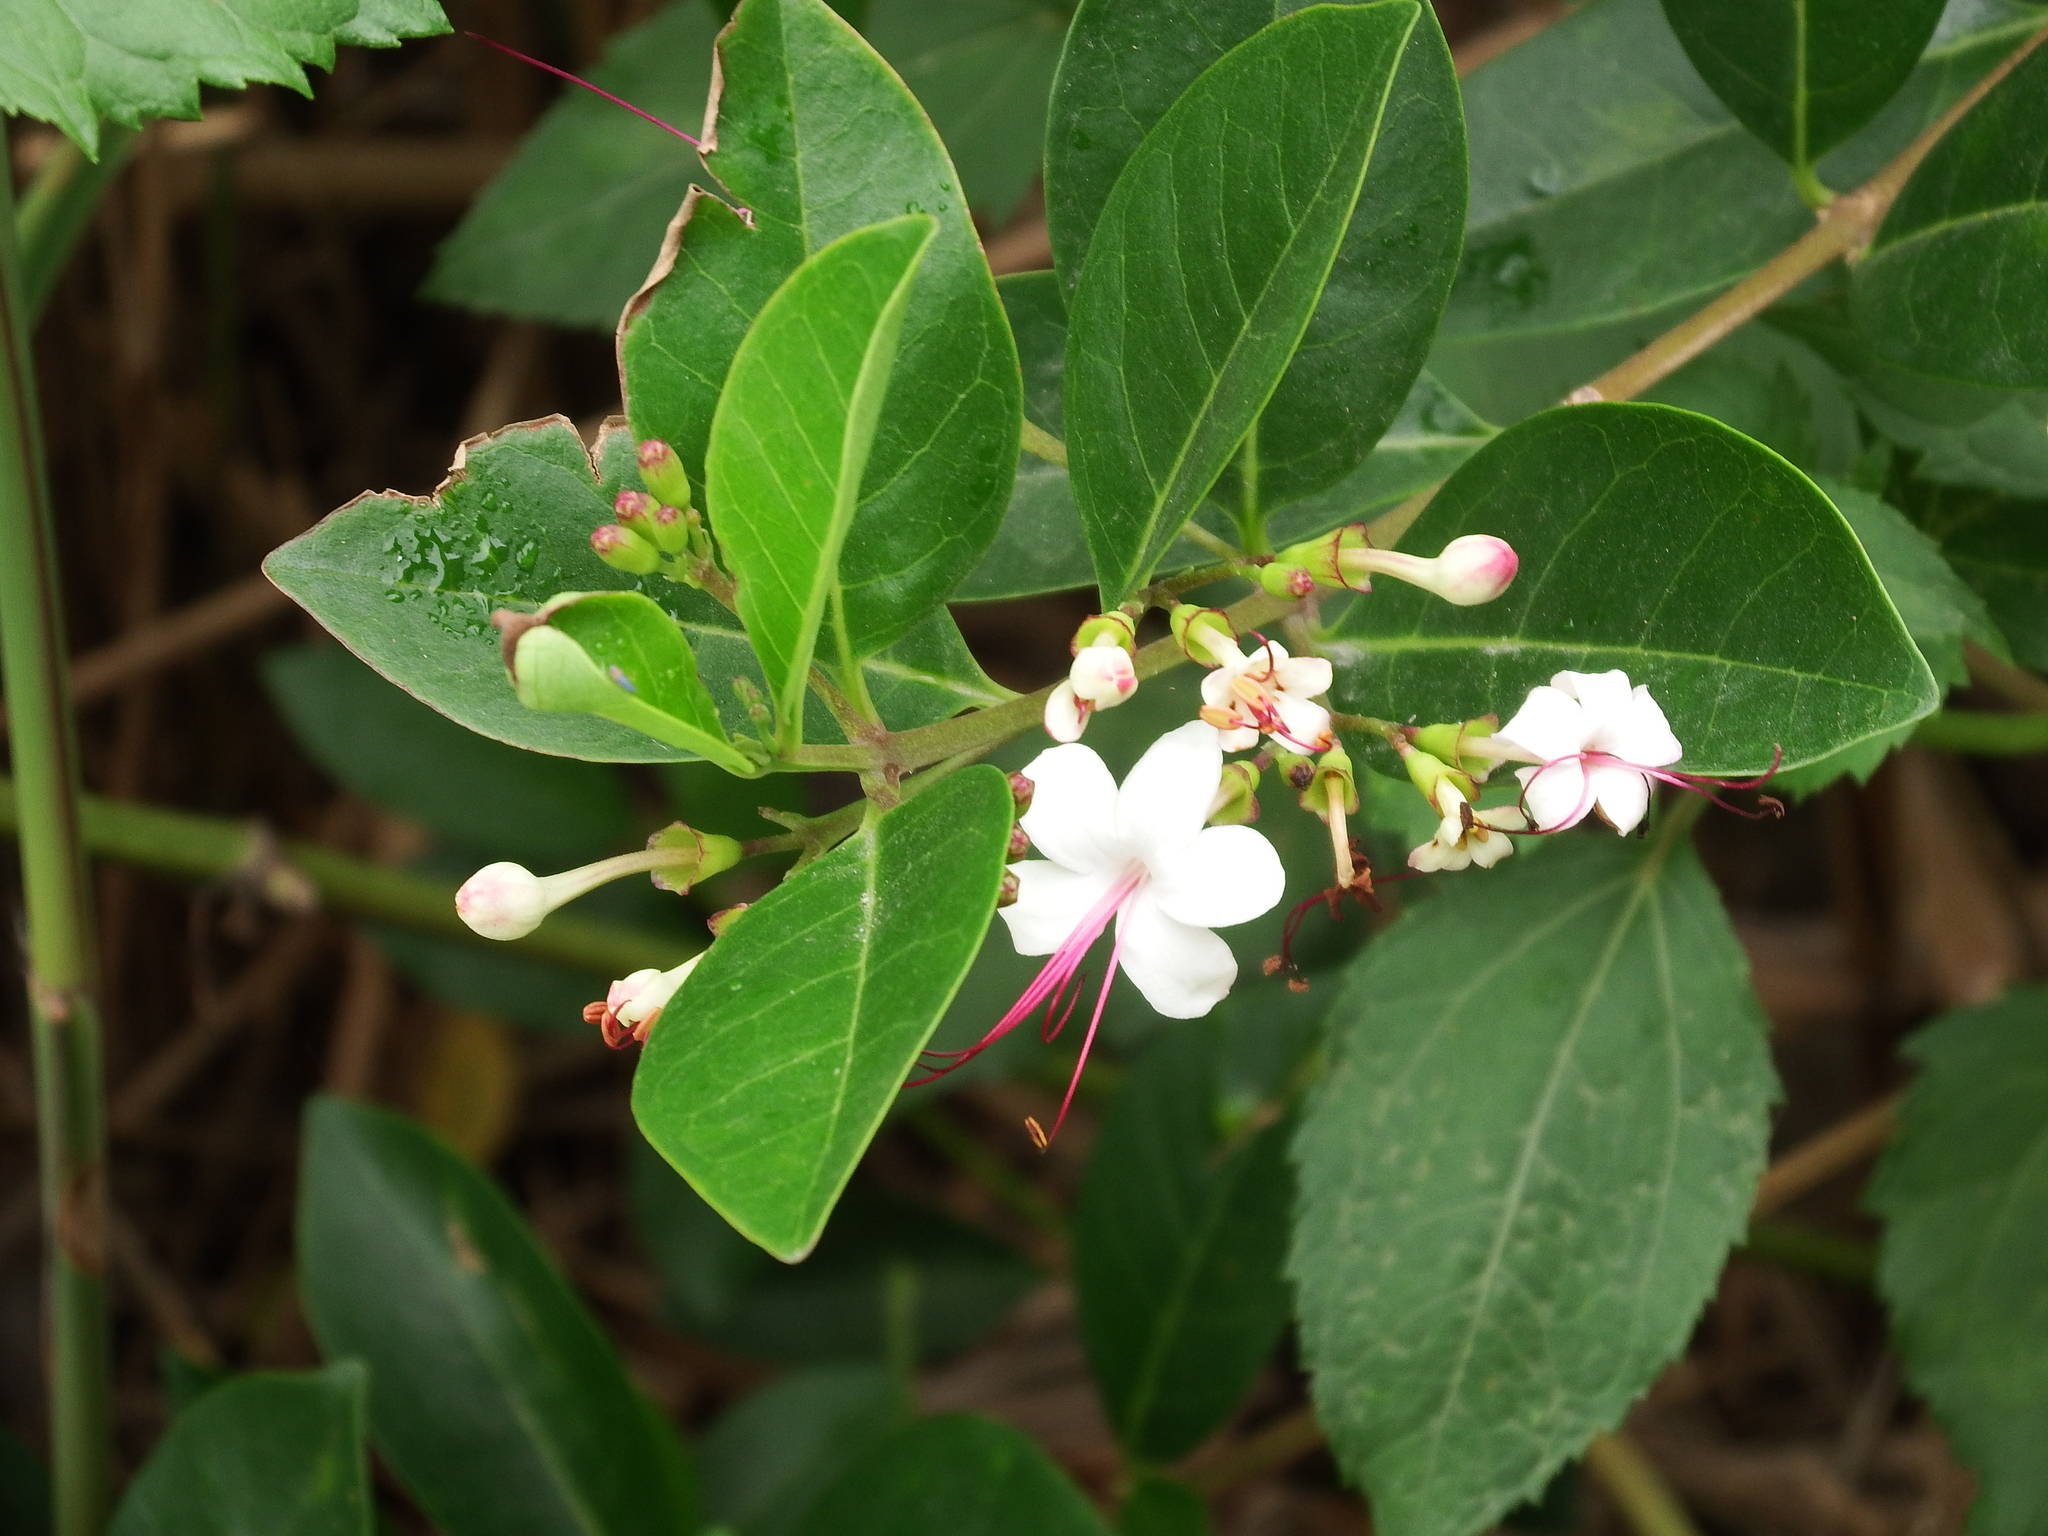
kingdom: Plantae
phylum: Tracheophyta
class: Magnoliopsida
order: Lamiales
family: Lamiaceae
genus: Volkameria
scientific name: Volkameria inermis
